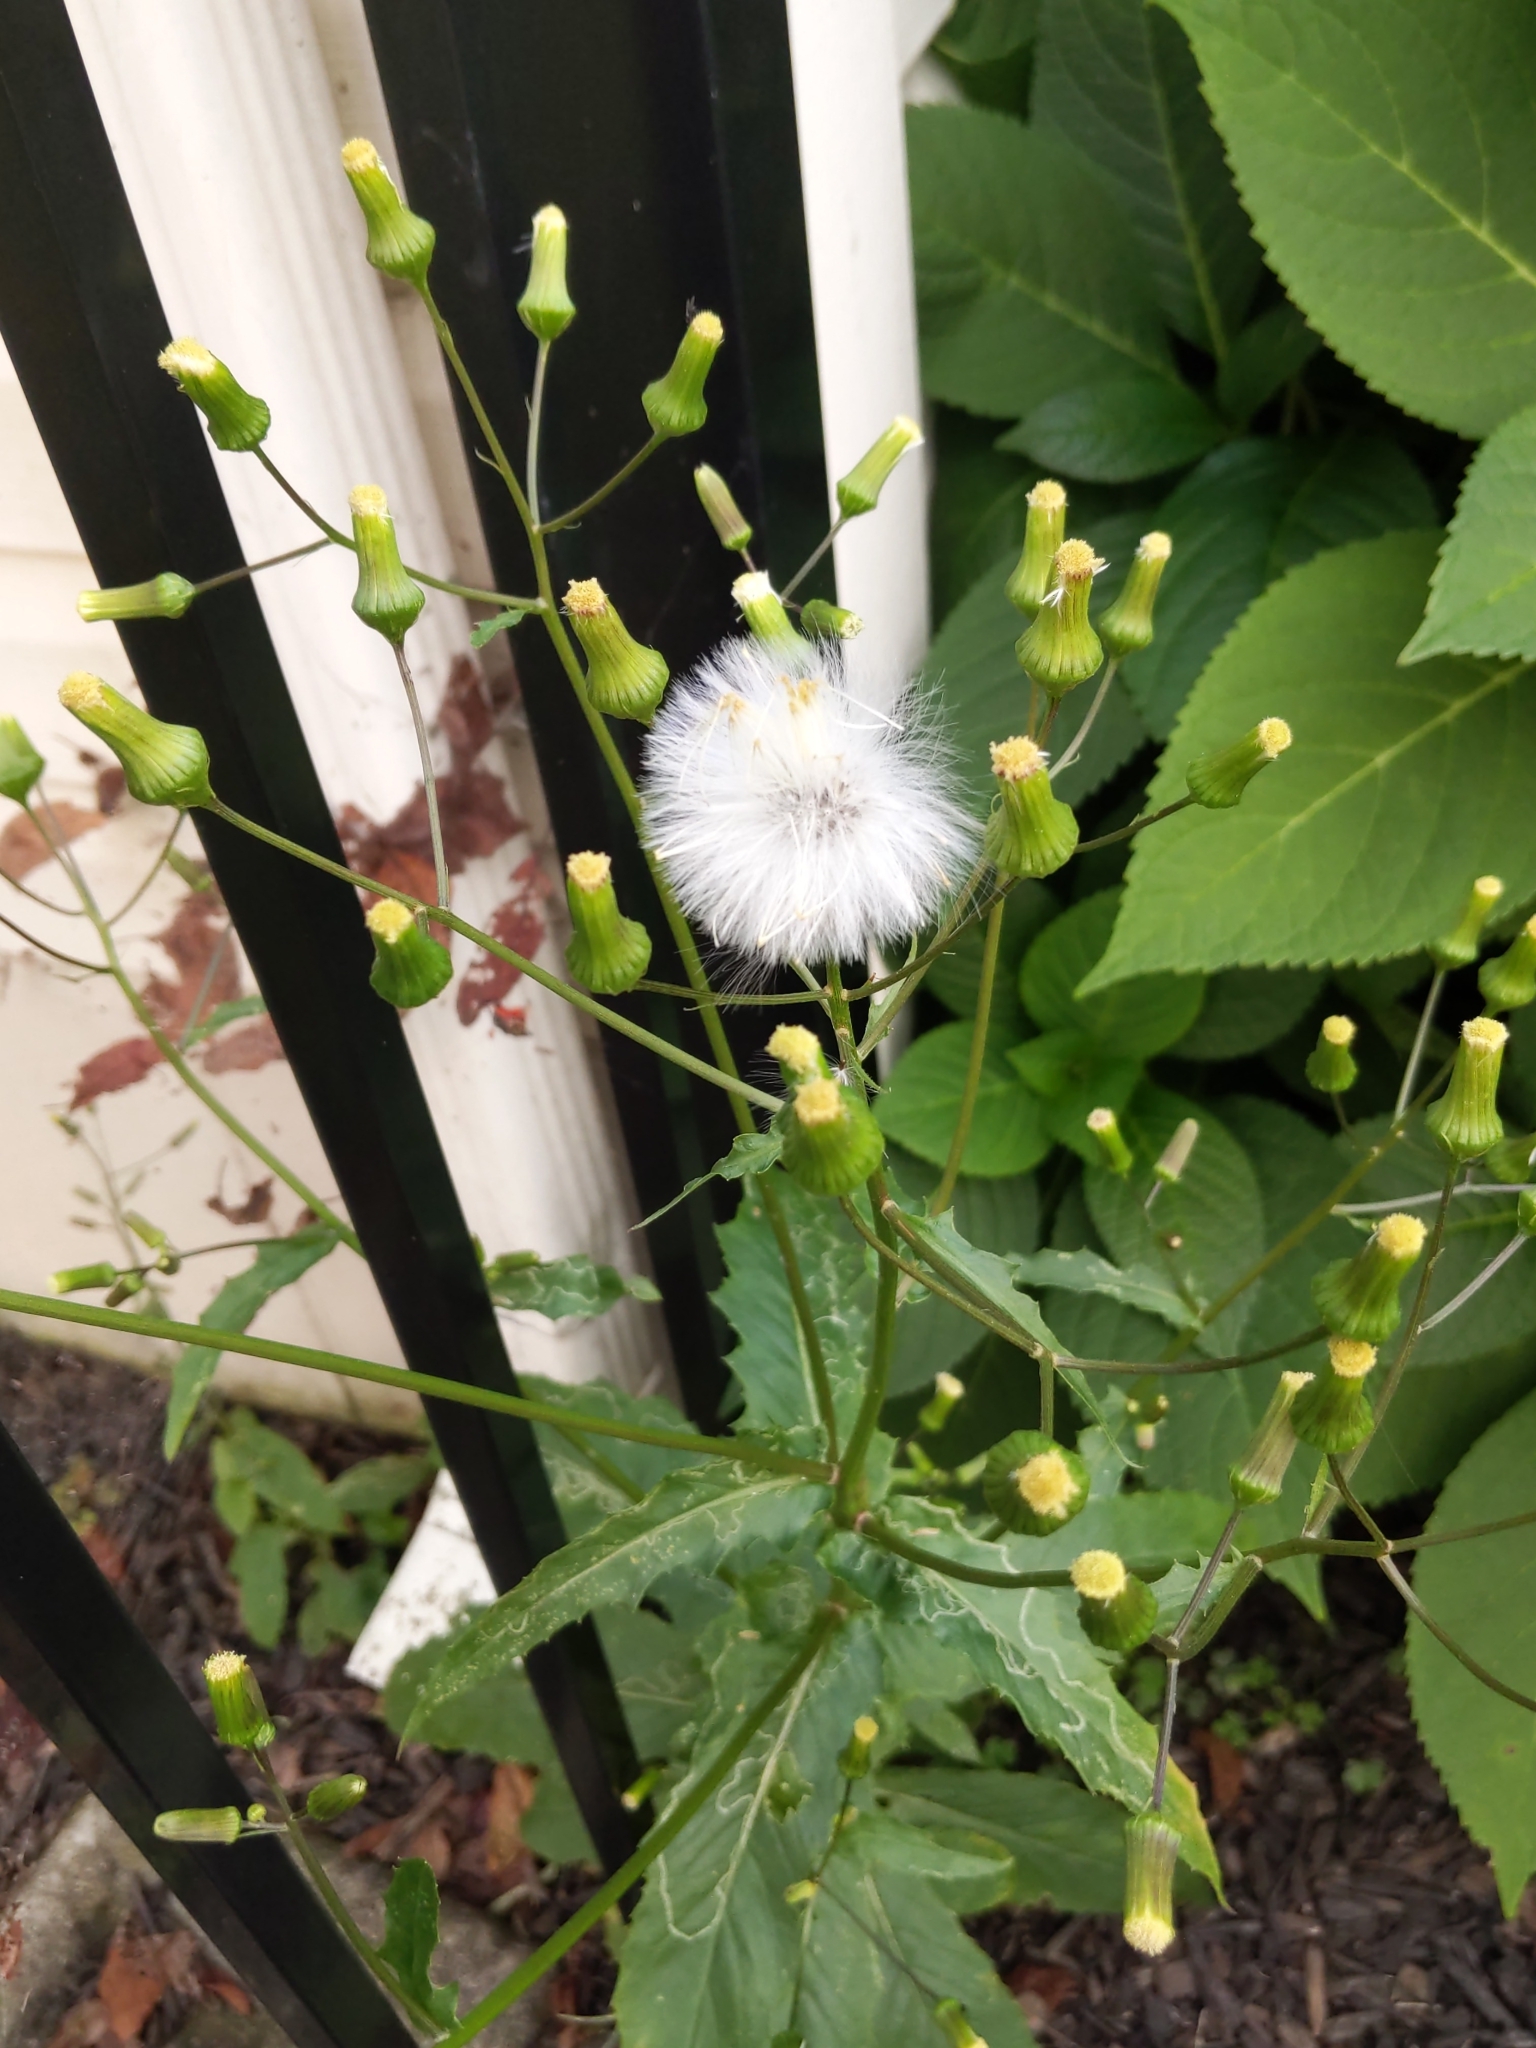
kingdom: Plantae
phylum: Tracheophyta
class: Magnoliopsida
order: Asterales
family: Asteraceae
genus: Erechtites
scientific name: Erechtites hieraciifolius
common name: American burnweed
